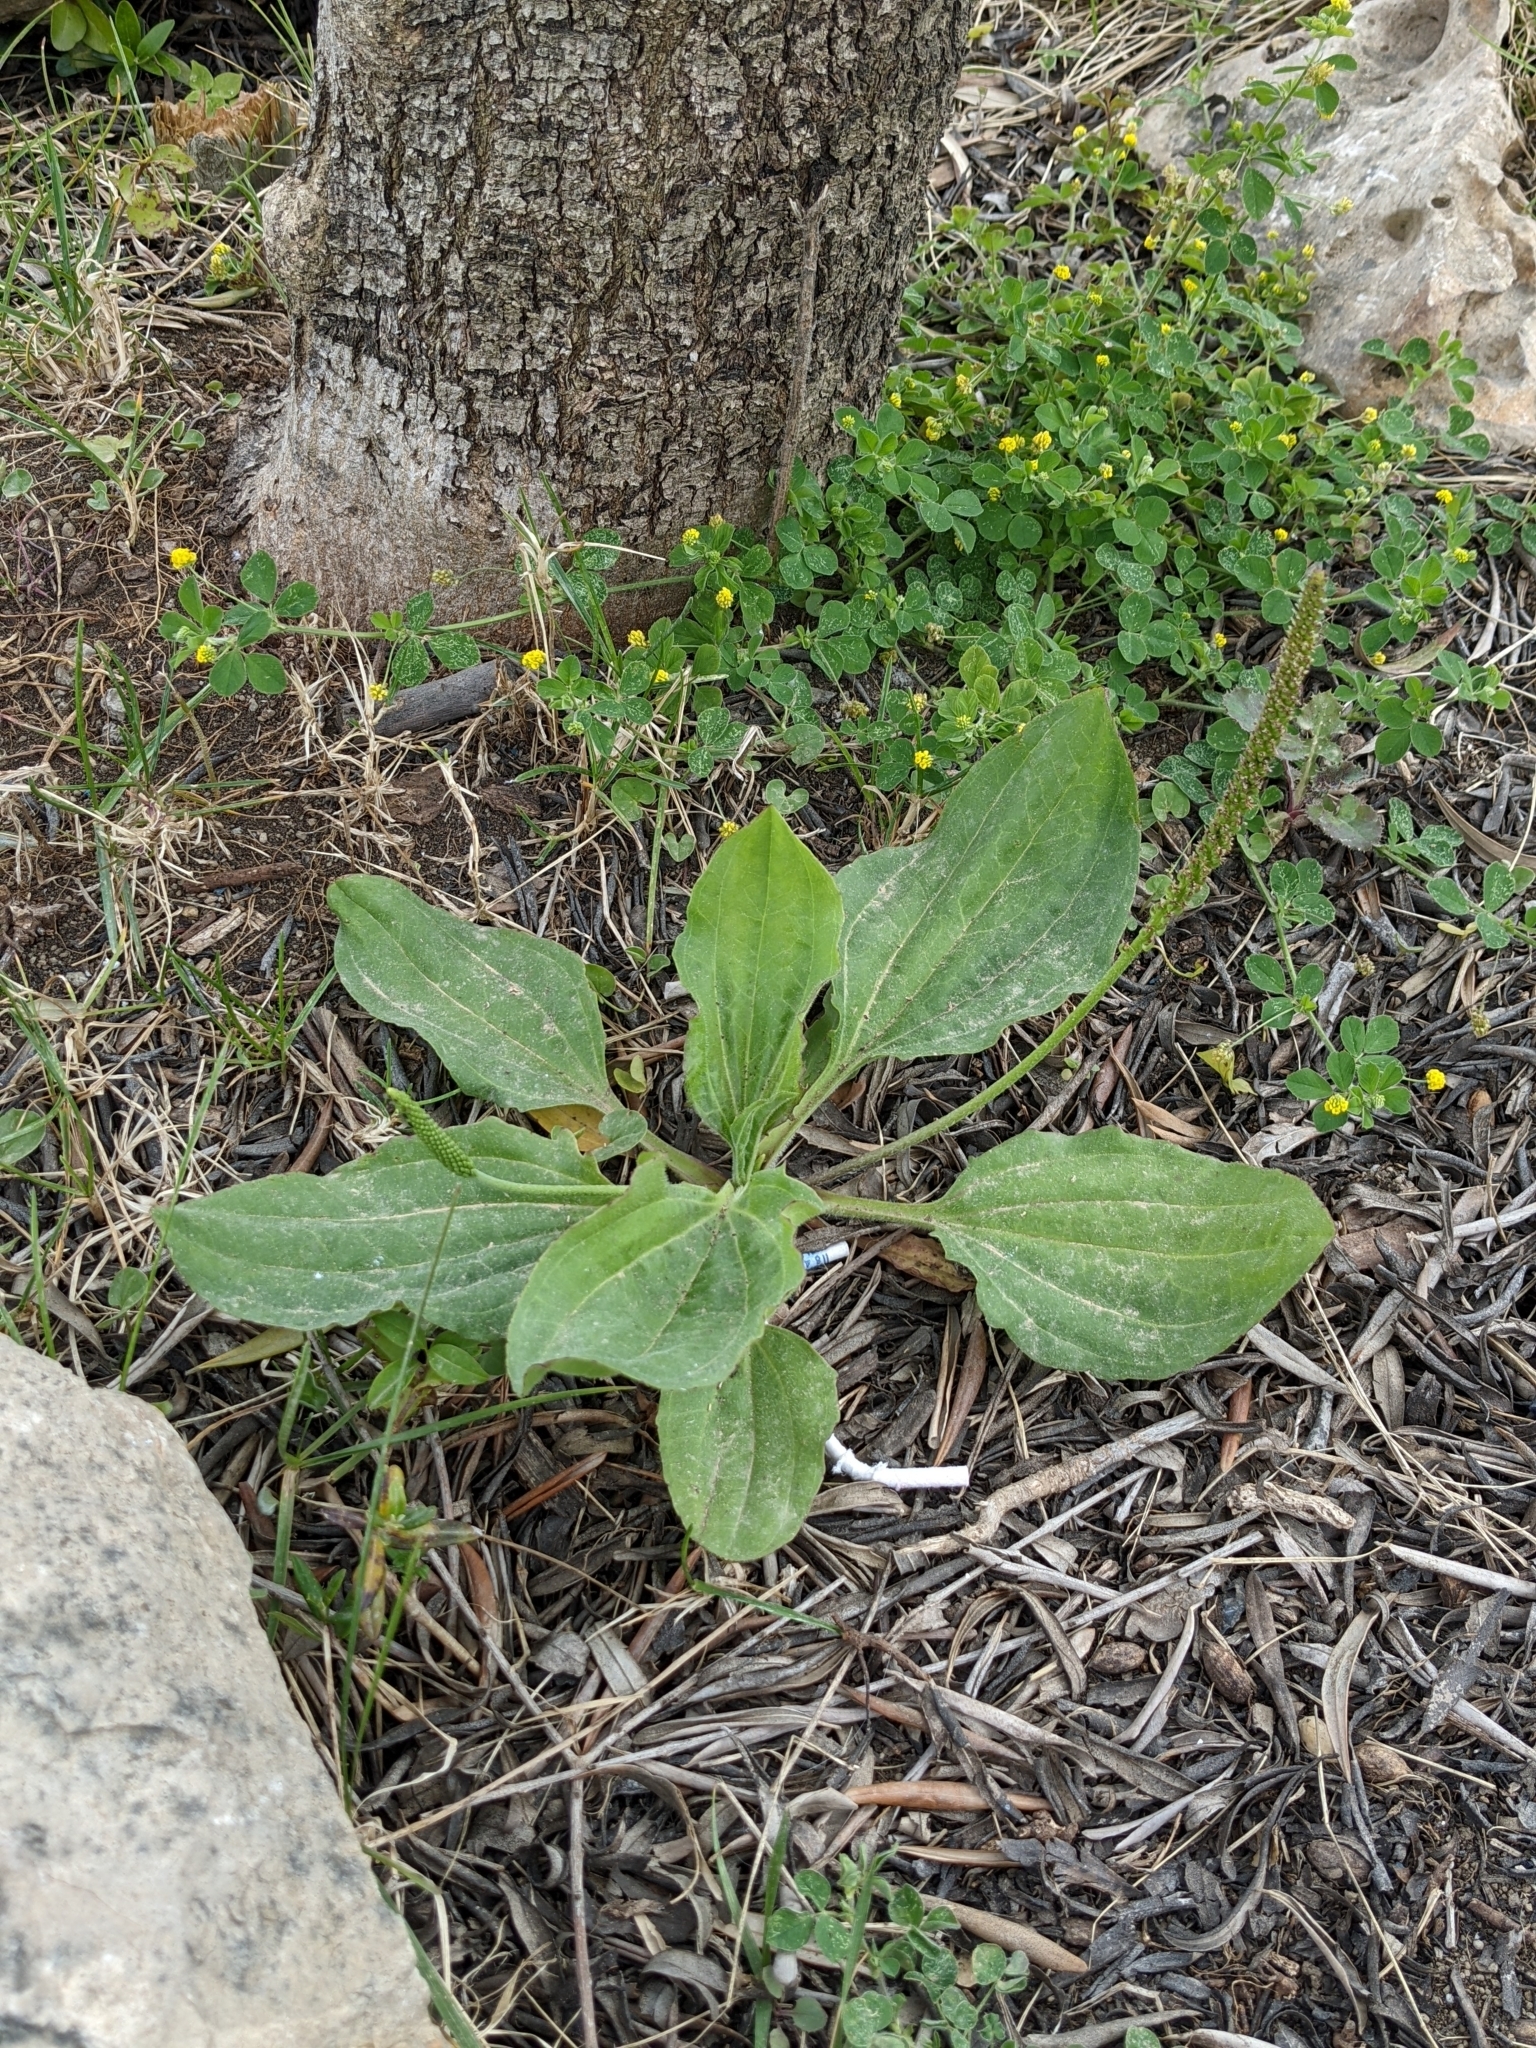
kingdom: Plantae
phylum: Tracheophyta
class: Magnoliopsida
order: Lamiales
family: Plantaginaceae
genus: Plantago
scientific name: Plantago major
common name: Common plantain
